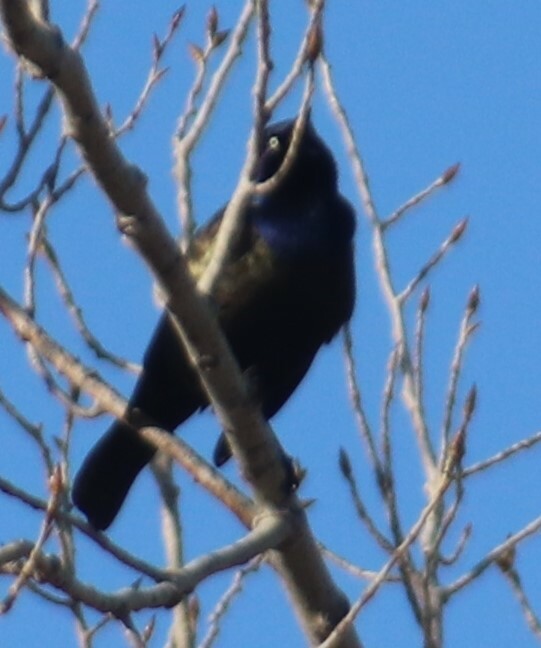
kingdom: Animalia
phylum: Chordata
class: Aves
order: Passeriformes
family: Icteridae
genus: Quiscalus
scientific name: Quiscalus quiscula
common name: Common grackle
